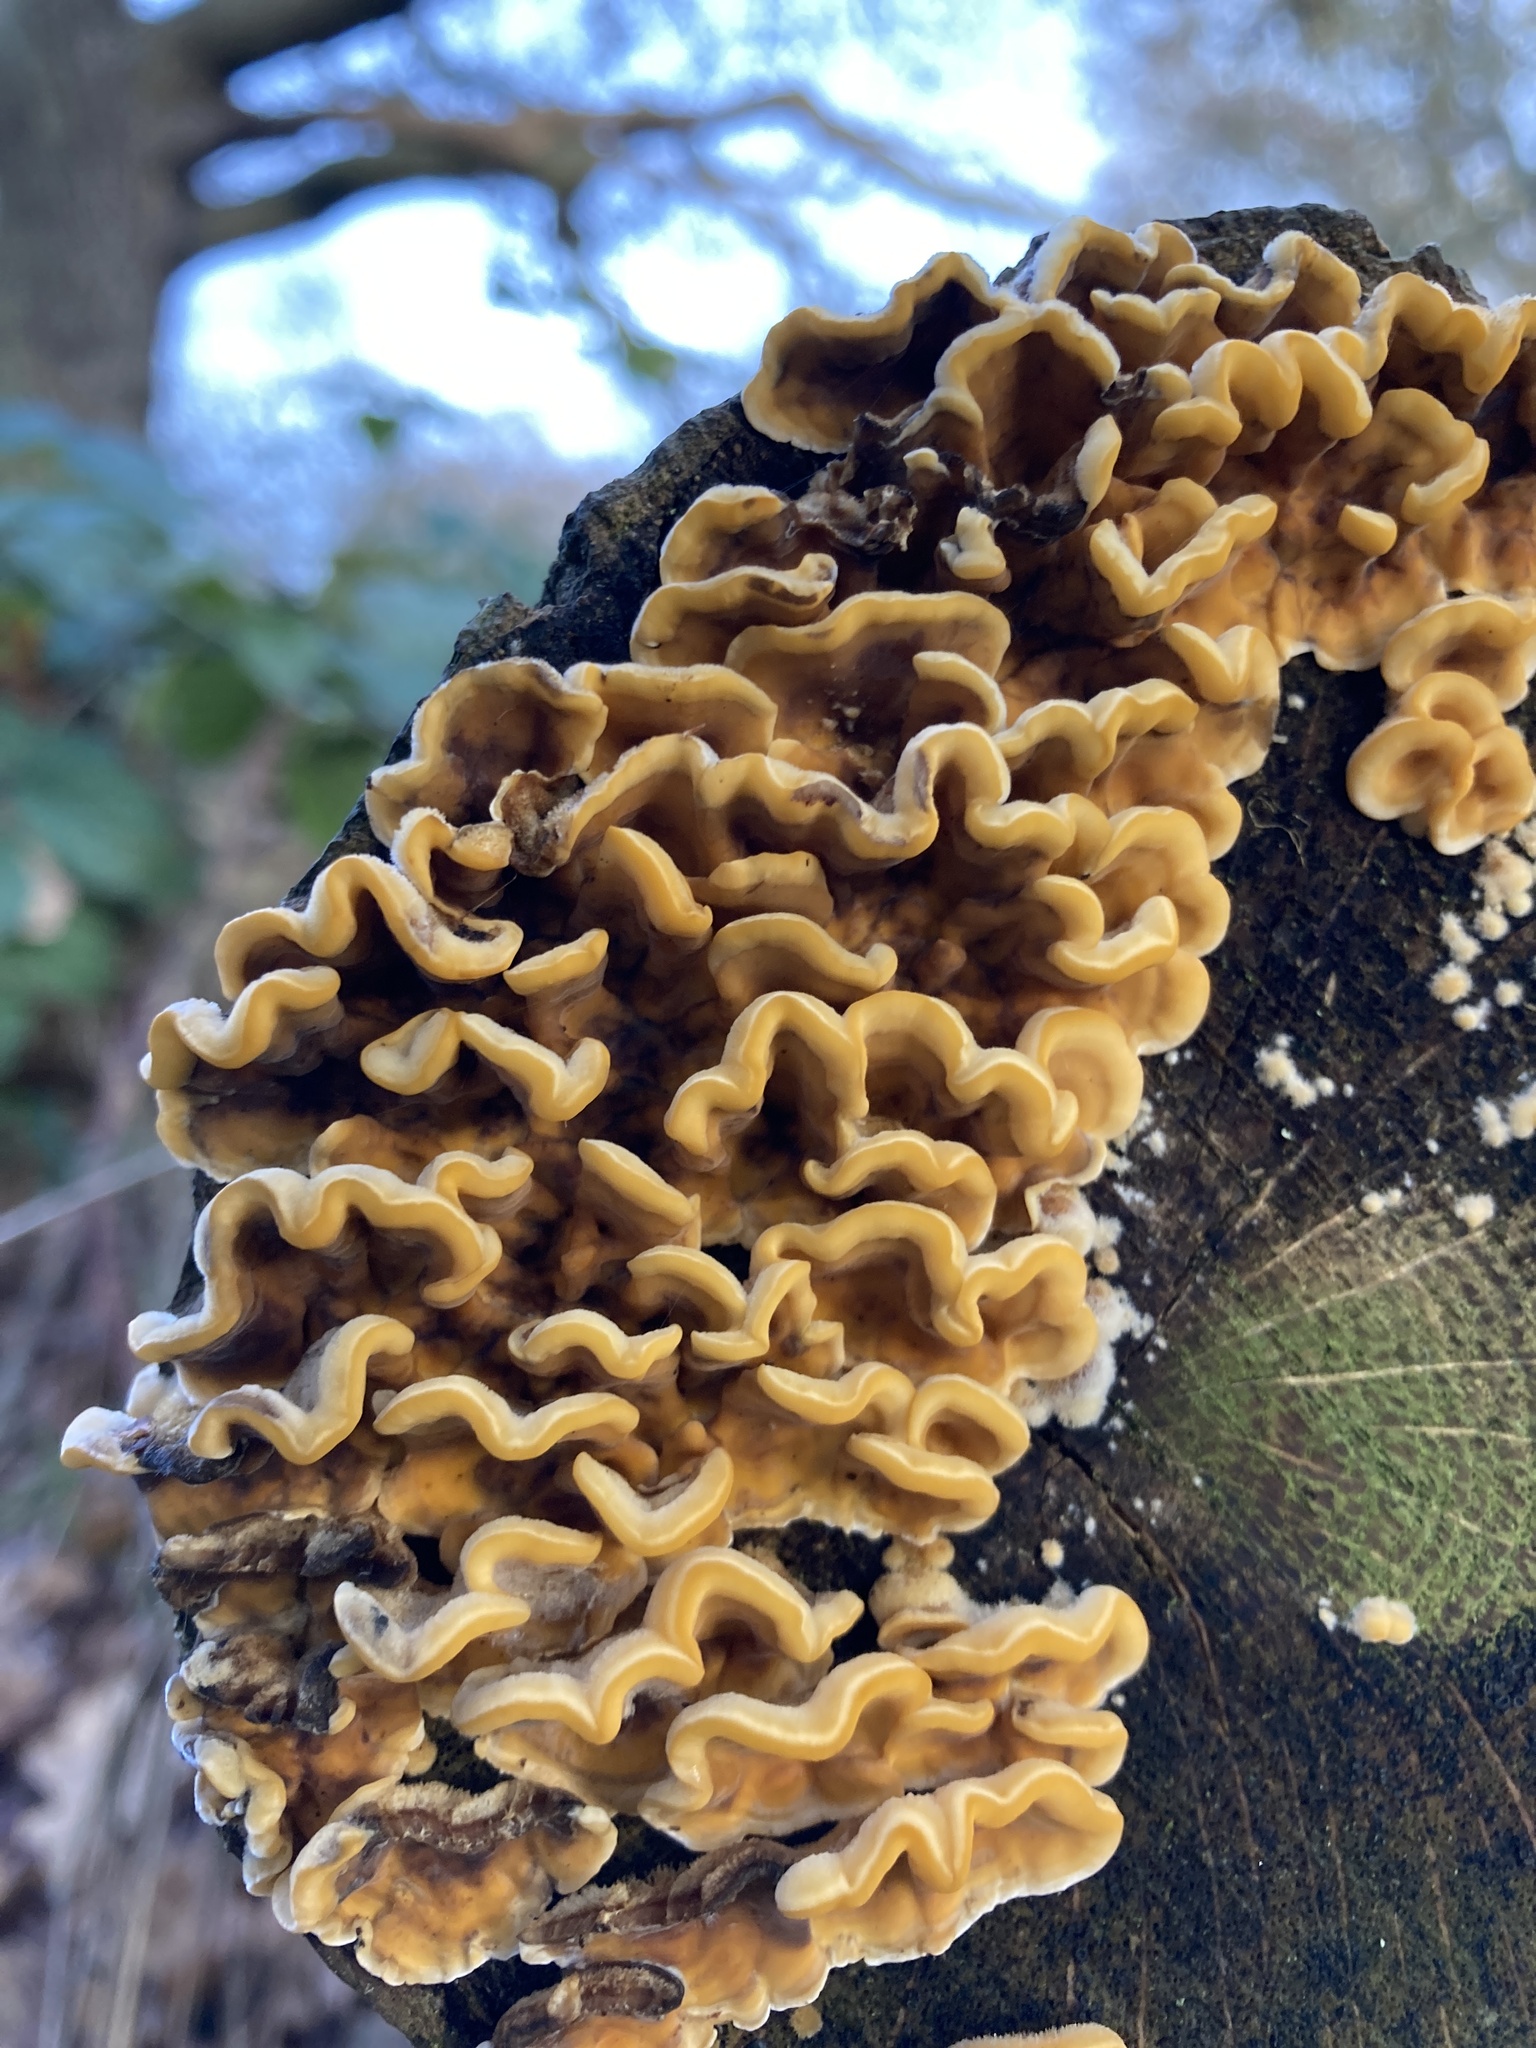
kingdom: Fungi
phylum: Basidiomycota
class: Agaricomycetes
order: Russulales
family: Stereaceae
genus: Stereum
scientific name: Stereum hirsutum
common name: Hairy curtain crust
